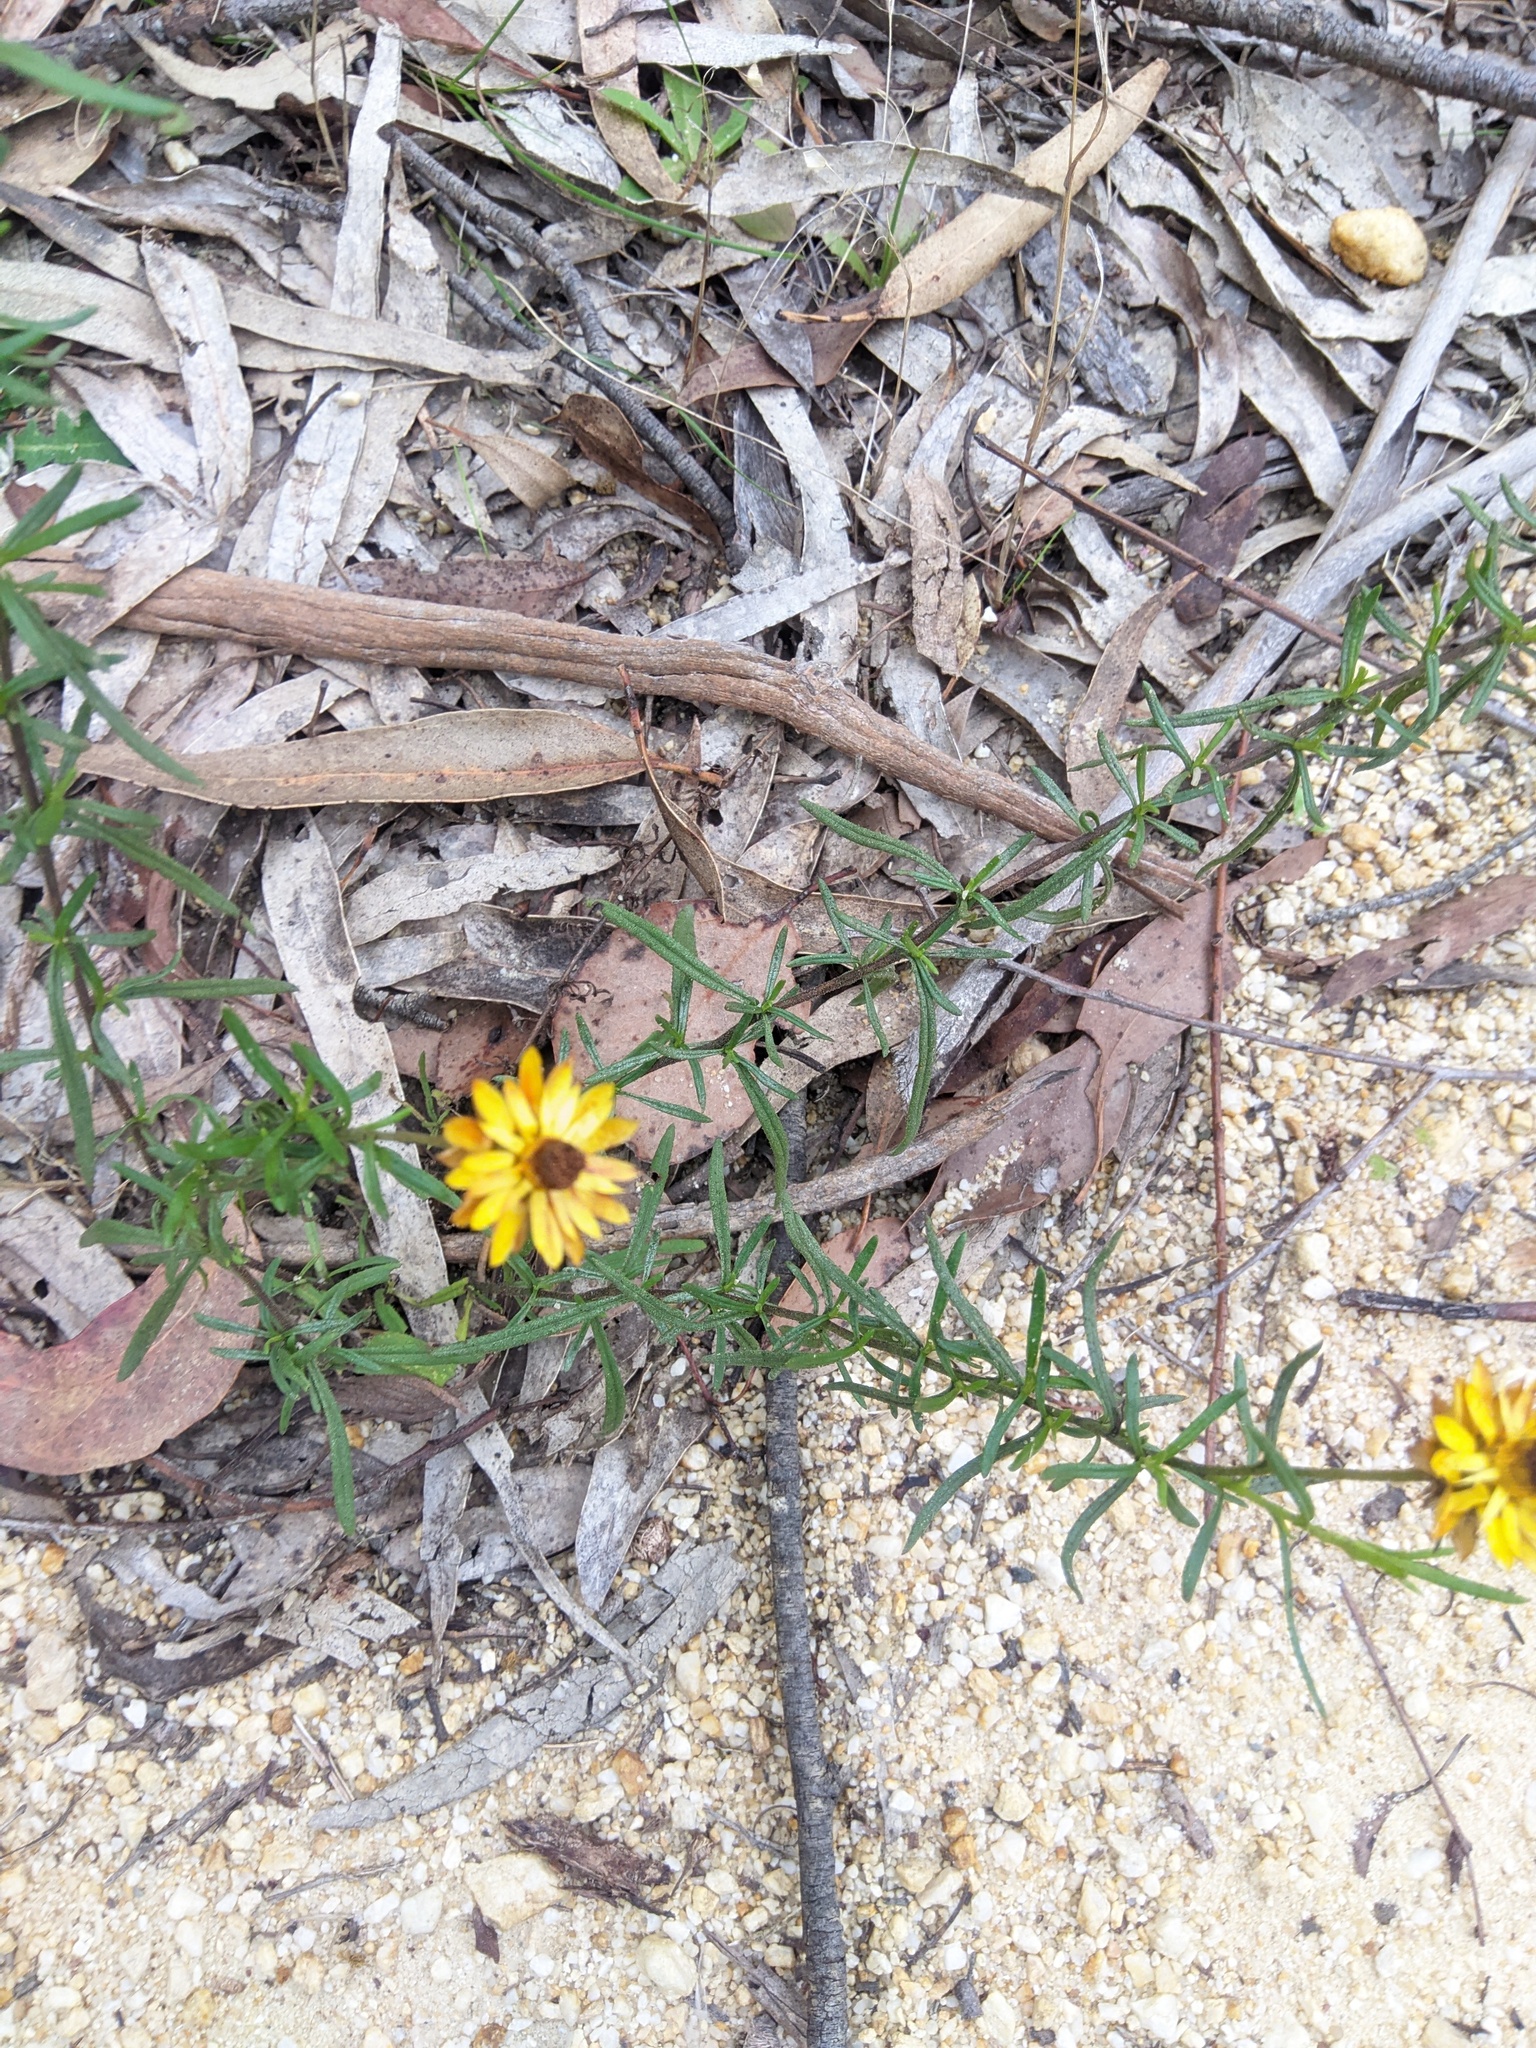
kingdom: Plantae
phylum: Tracheophyta
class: Magnoliopsida
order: Asterales
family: Asteraceae
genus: Xerochrysum
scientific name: Xerochrysum viscosum
